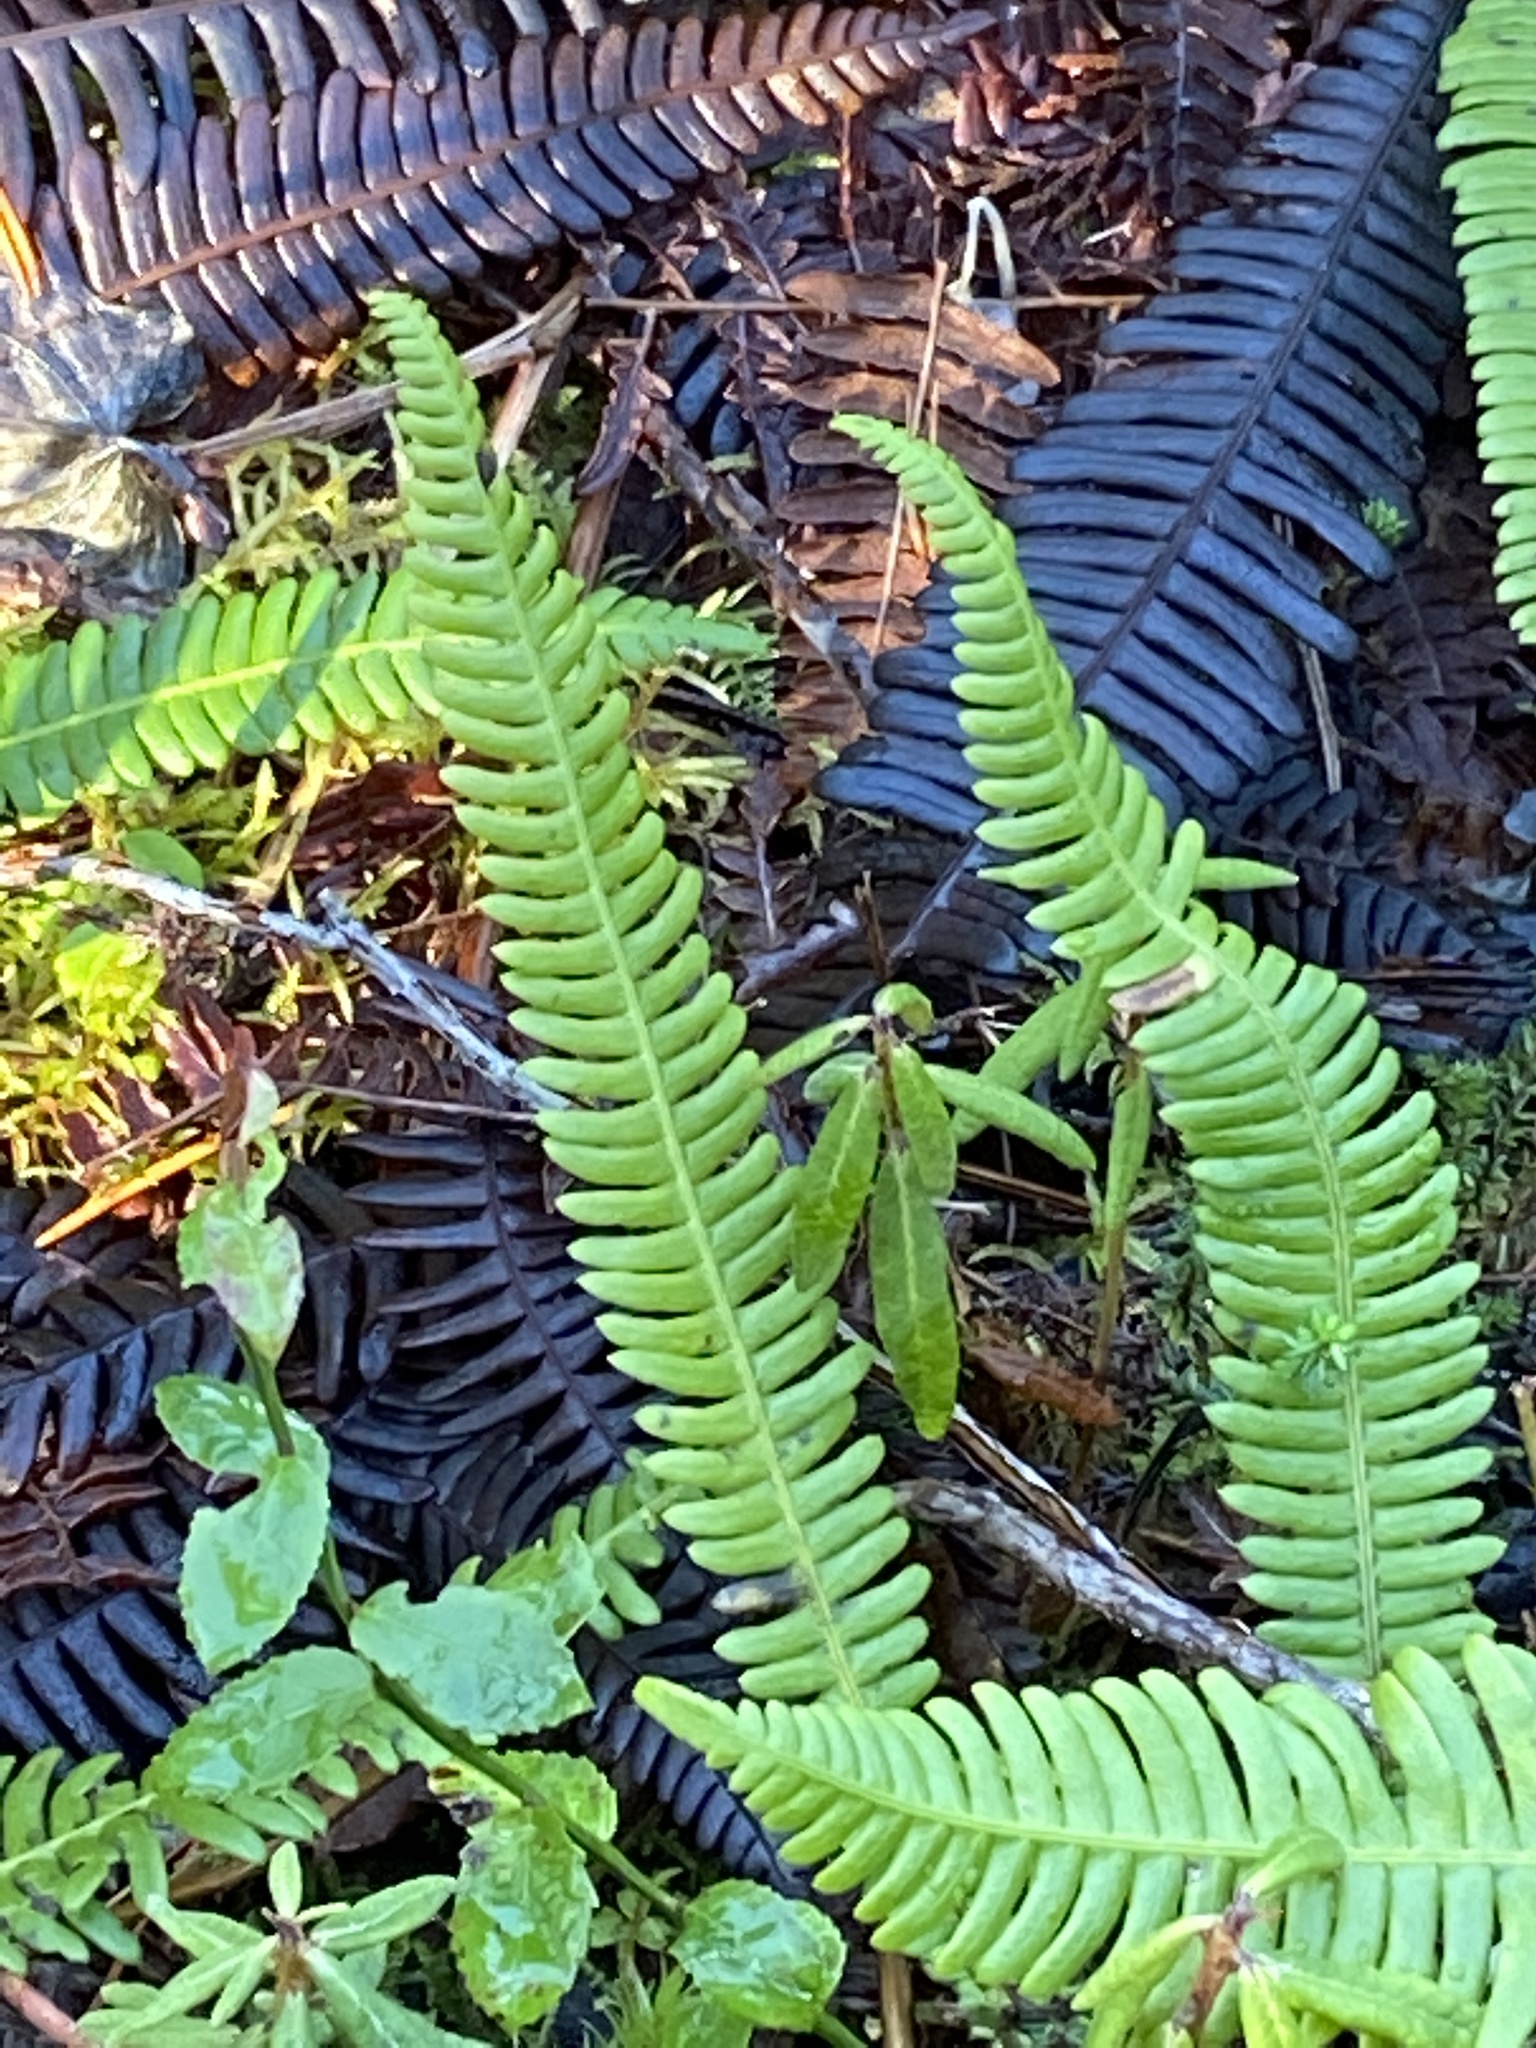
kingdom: Plantae
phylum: Tracheophyta
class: Polypodiopsida
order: Polypodiales
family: Blechnaceae
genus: Struthiopteris
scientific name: Struthiopteris spicant
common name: Deer fern
